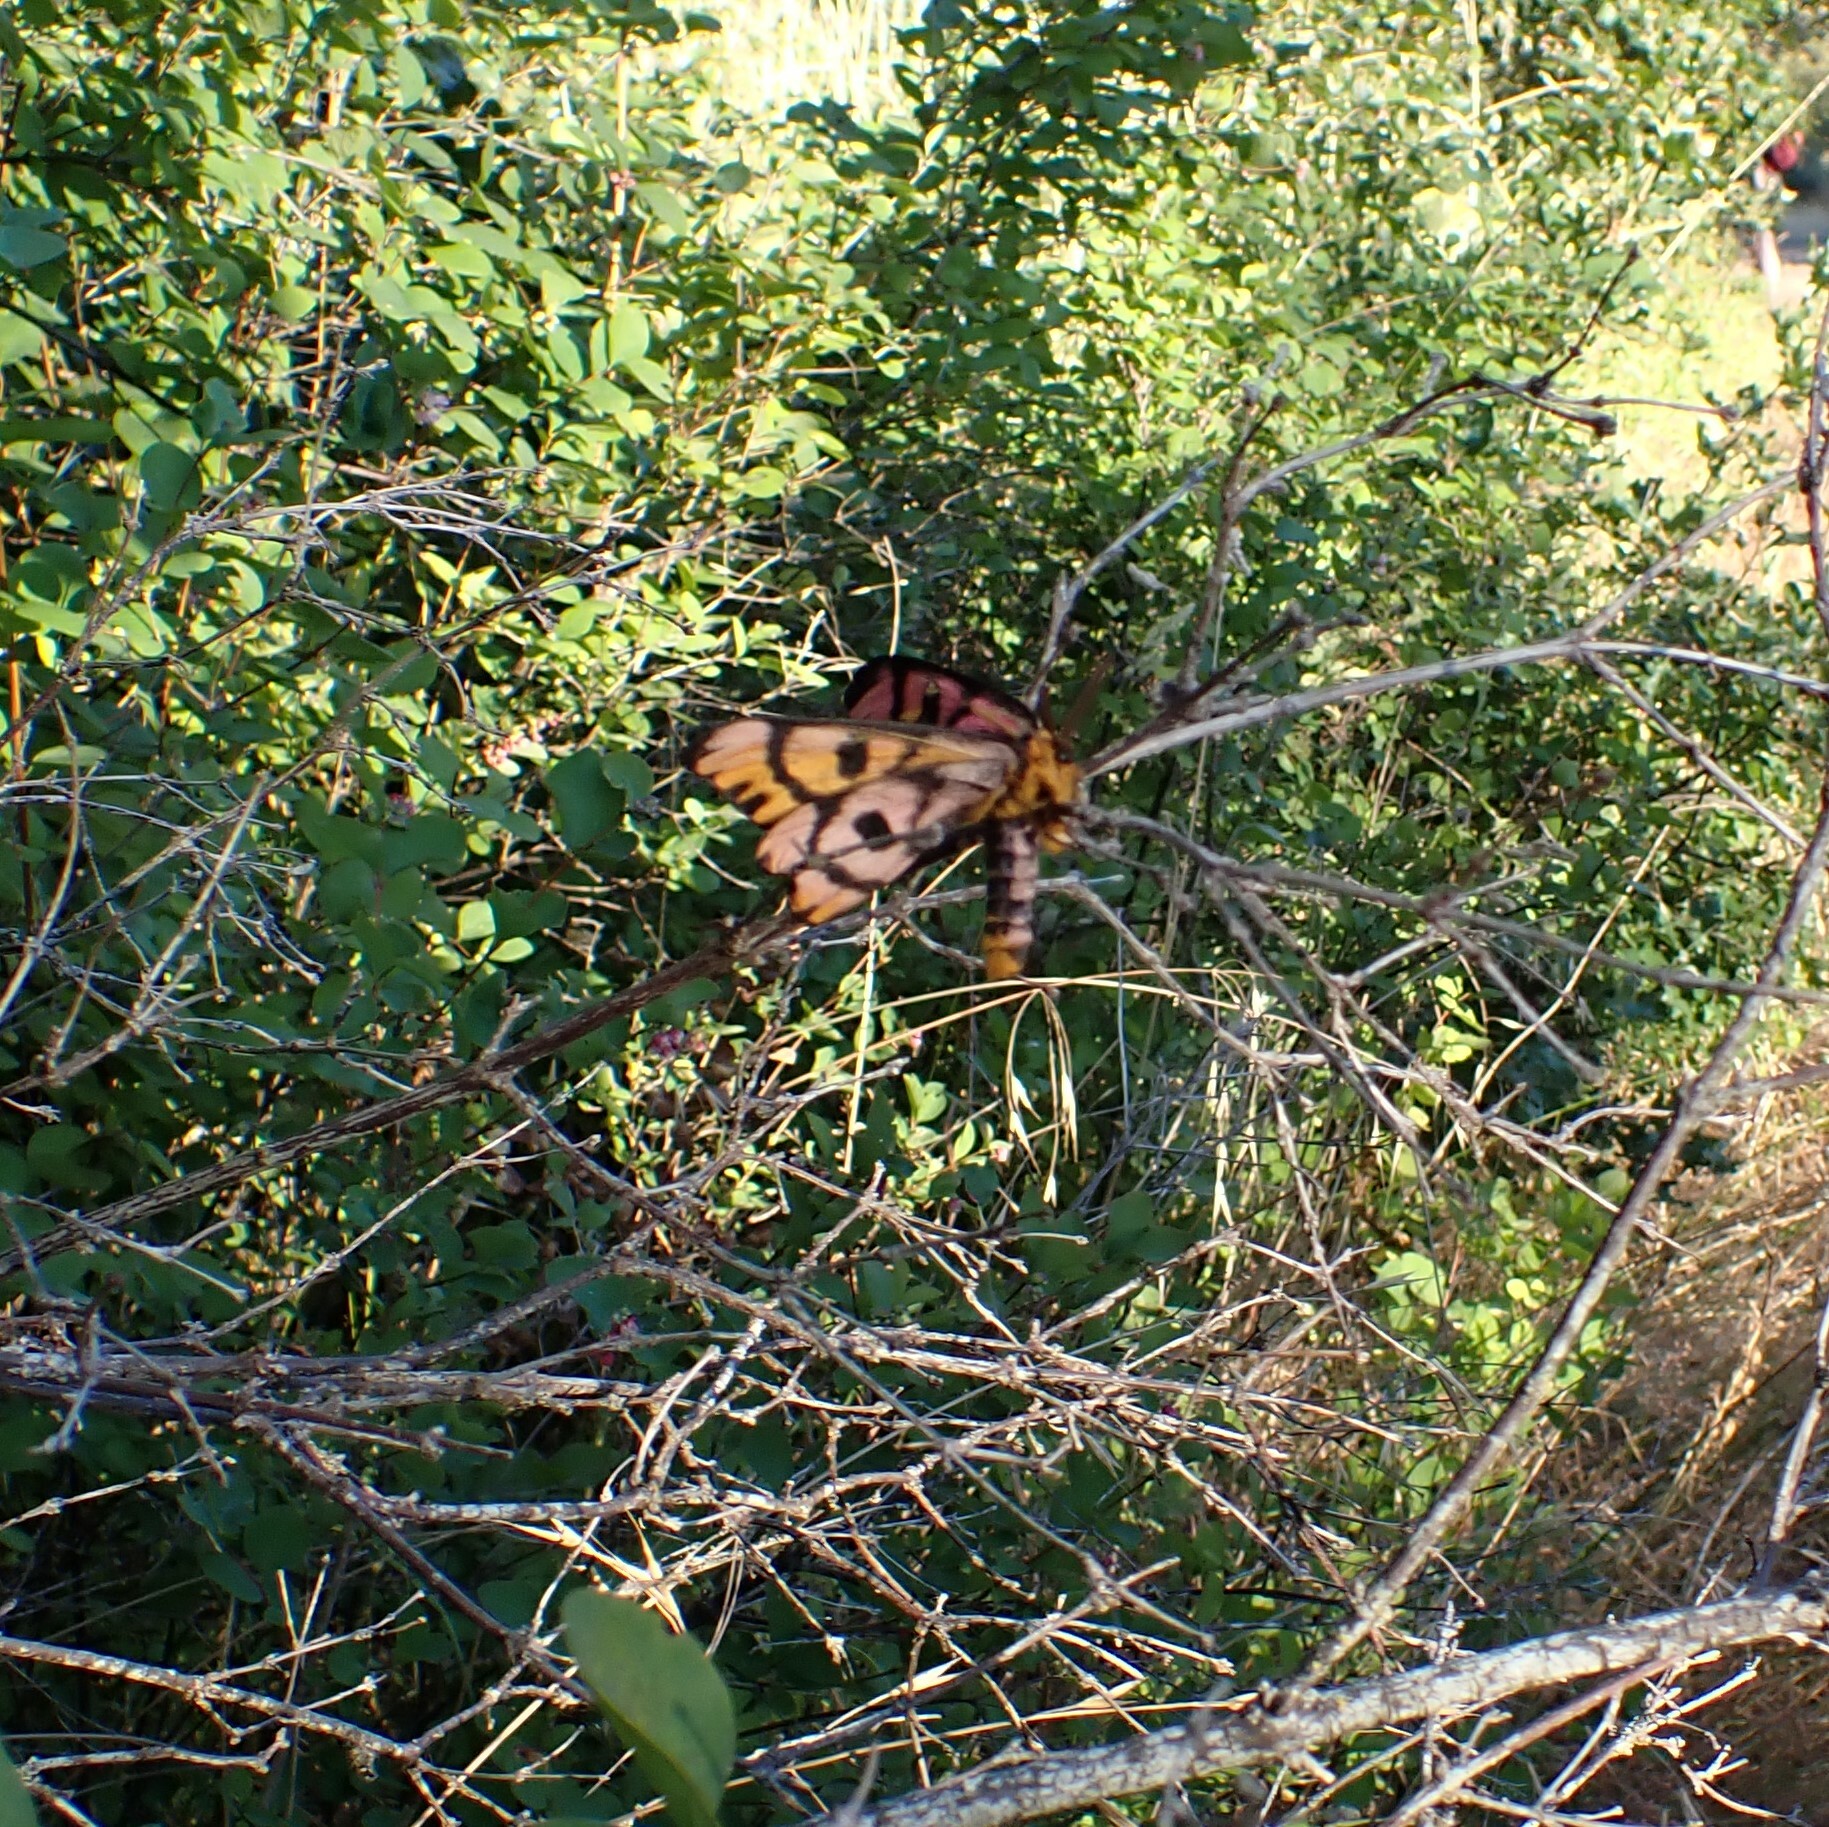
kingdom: Animalia
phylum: Arthropoda
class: Insecta
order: Lepidoptera
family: Saturniidae
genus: Hemileuca
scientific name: Hemileuca eglanterina
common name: Western sheepmoth
